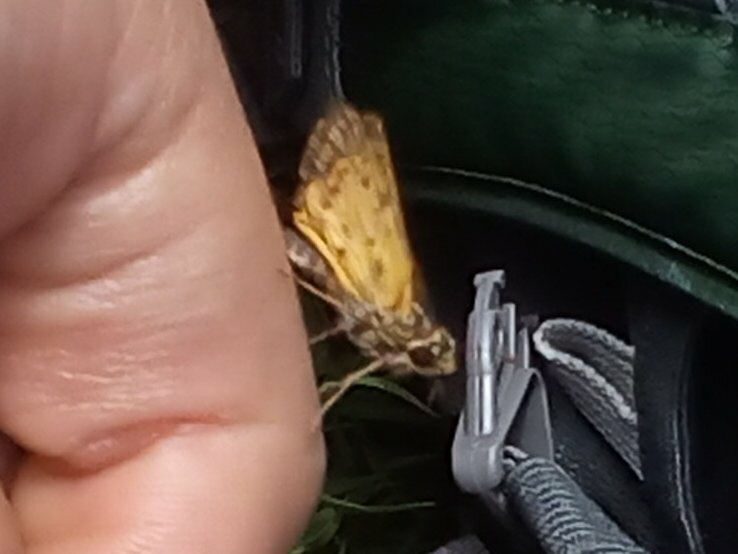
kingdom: Animalia
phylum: Arthropoda
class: Insecta
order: Lepidoptera
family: Hesperiidae
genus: Hylephila
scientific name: Hylephila phyleus
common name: Fiery skipper
